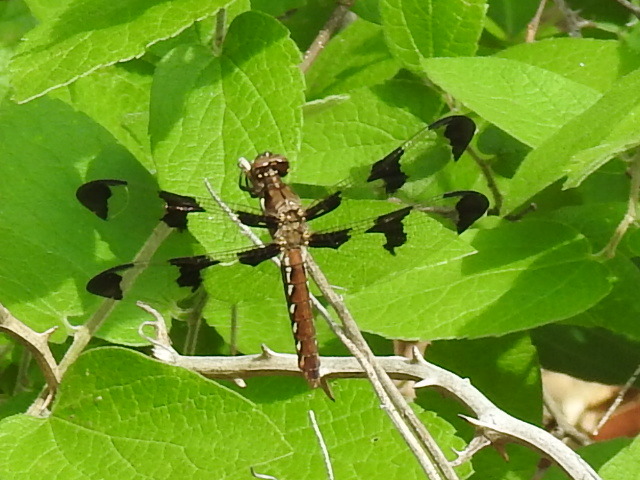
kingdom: Animalia
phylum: Arthropoda
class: Insecta
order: Odonata
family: Libellulidae
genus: Plathemis
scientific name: Plathemis lydia
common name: Common whitetail
